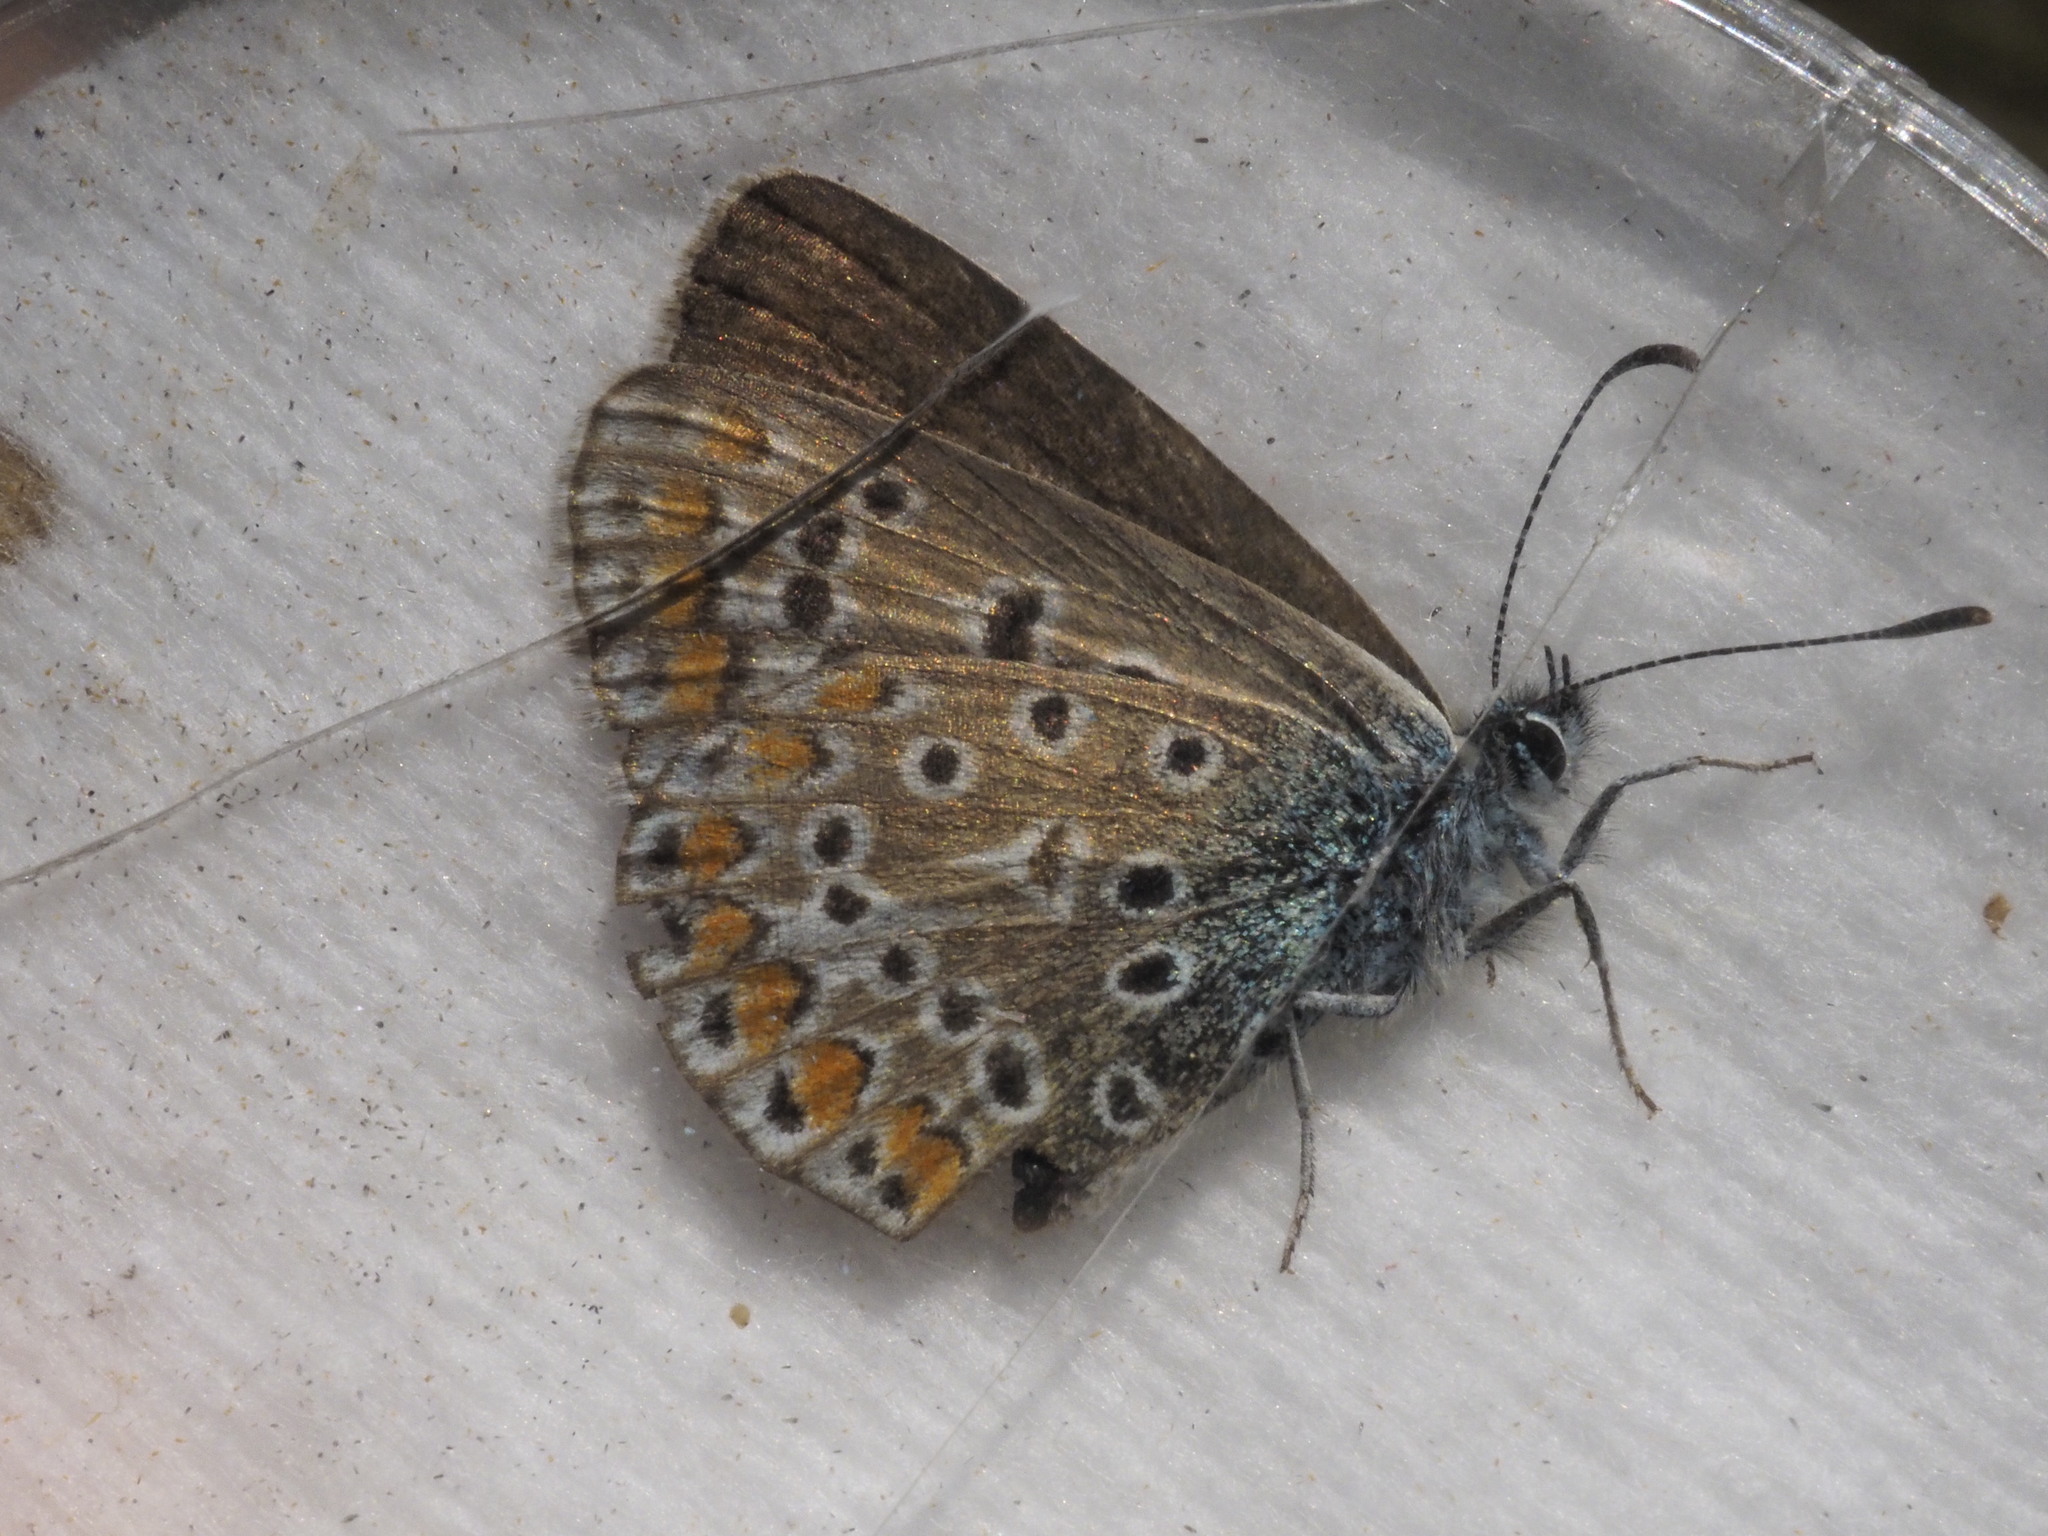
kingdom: Animalia
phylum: Arthropoda
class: Insecta
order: Lepidoptera
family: Lycaenidae
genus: Polyommatus
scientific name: Polyommatus icarus
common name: Common blue
